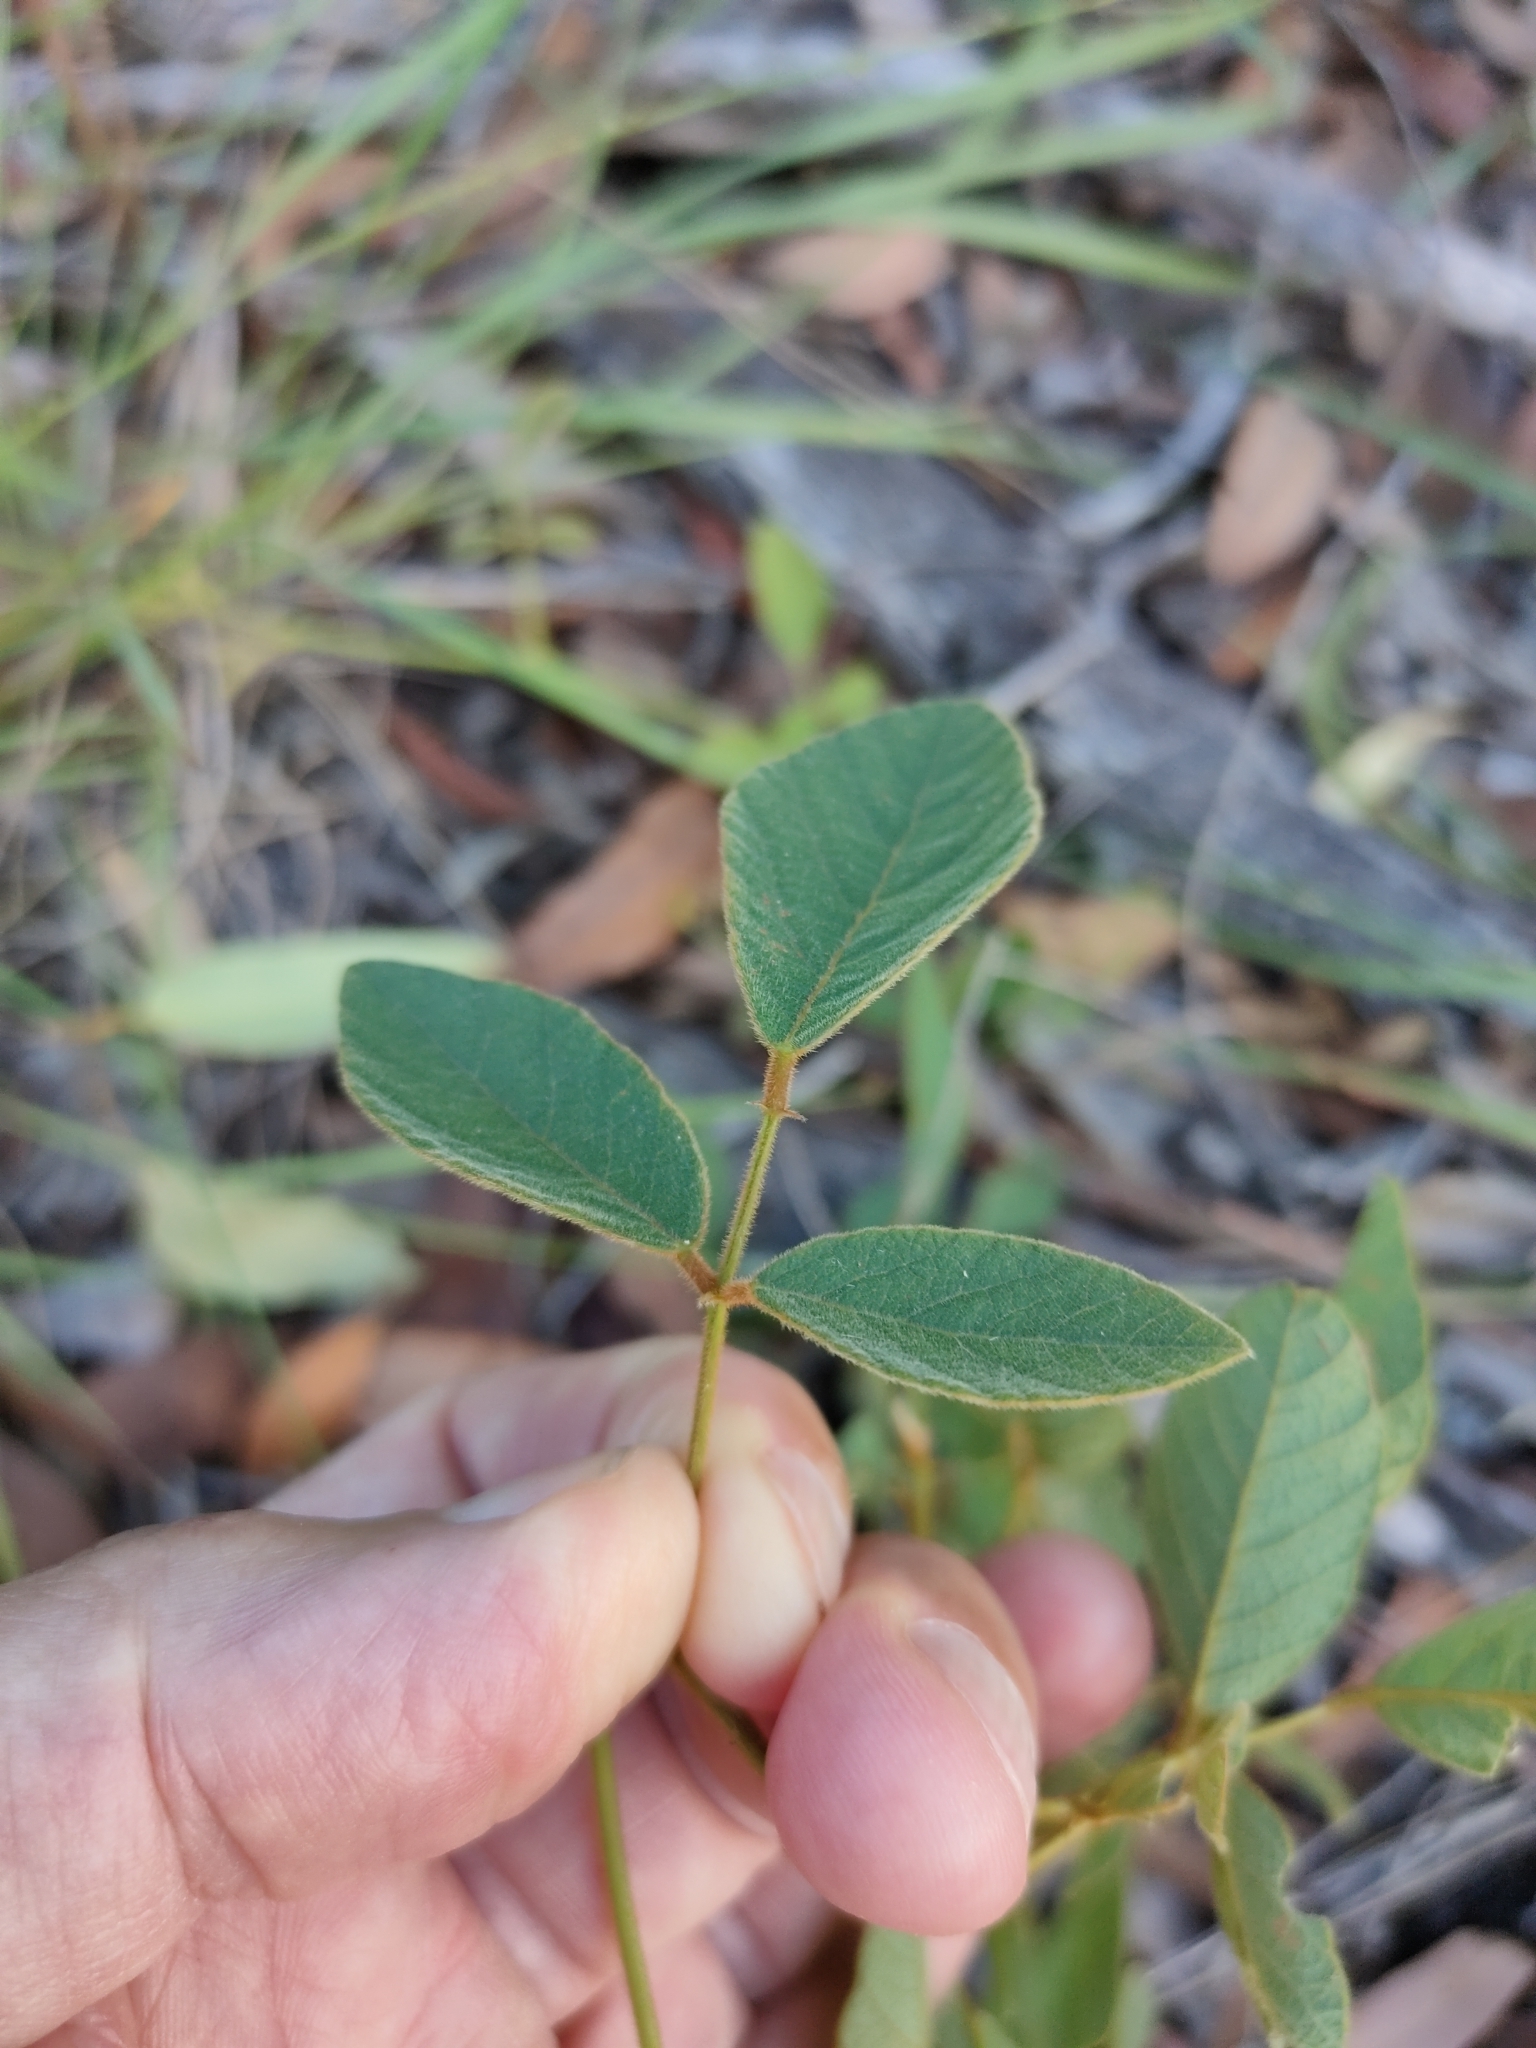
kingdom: Plantae
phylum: Tracheophyta
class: Magnoliopsida
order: Fabales
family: Fabaceae
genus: Maekawaea
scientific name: Maekawaea rhytidophylla
